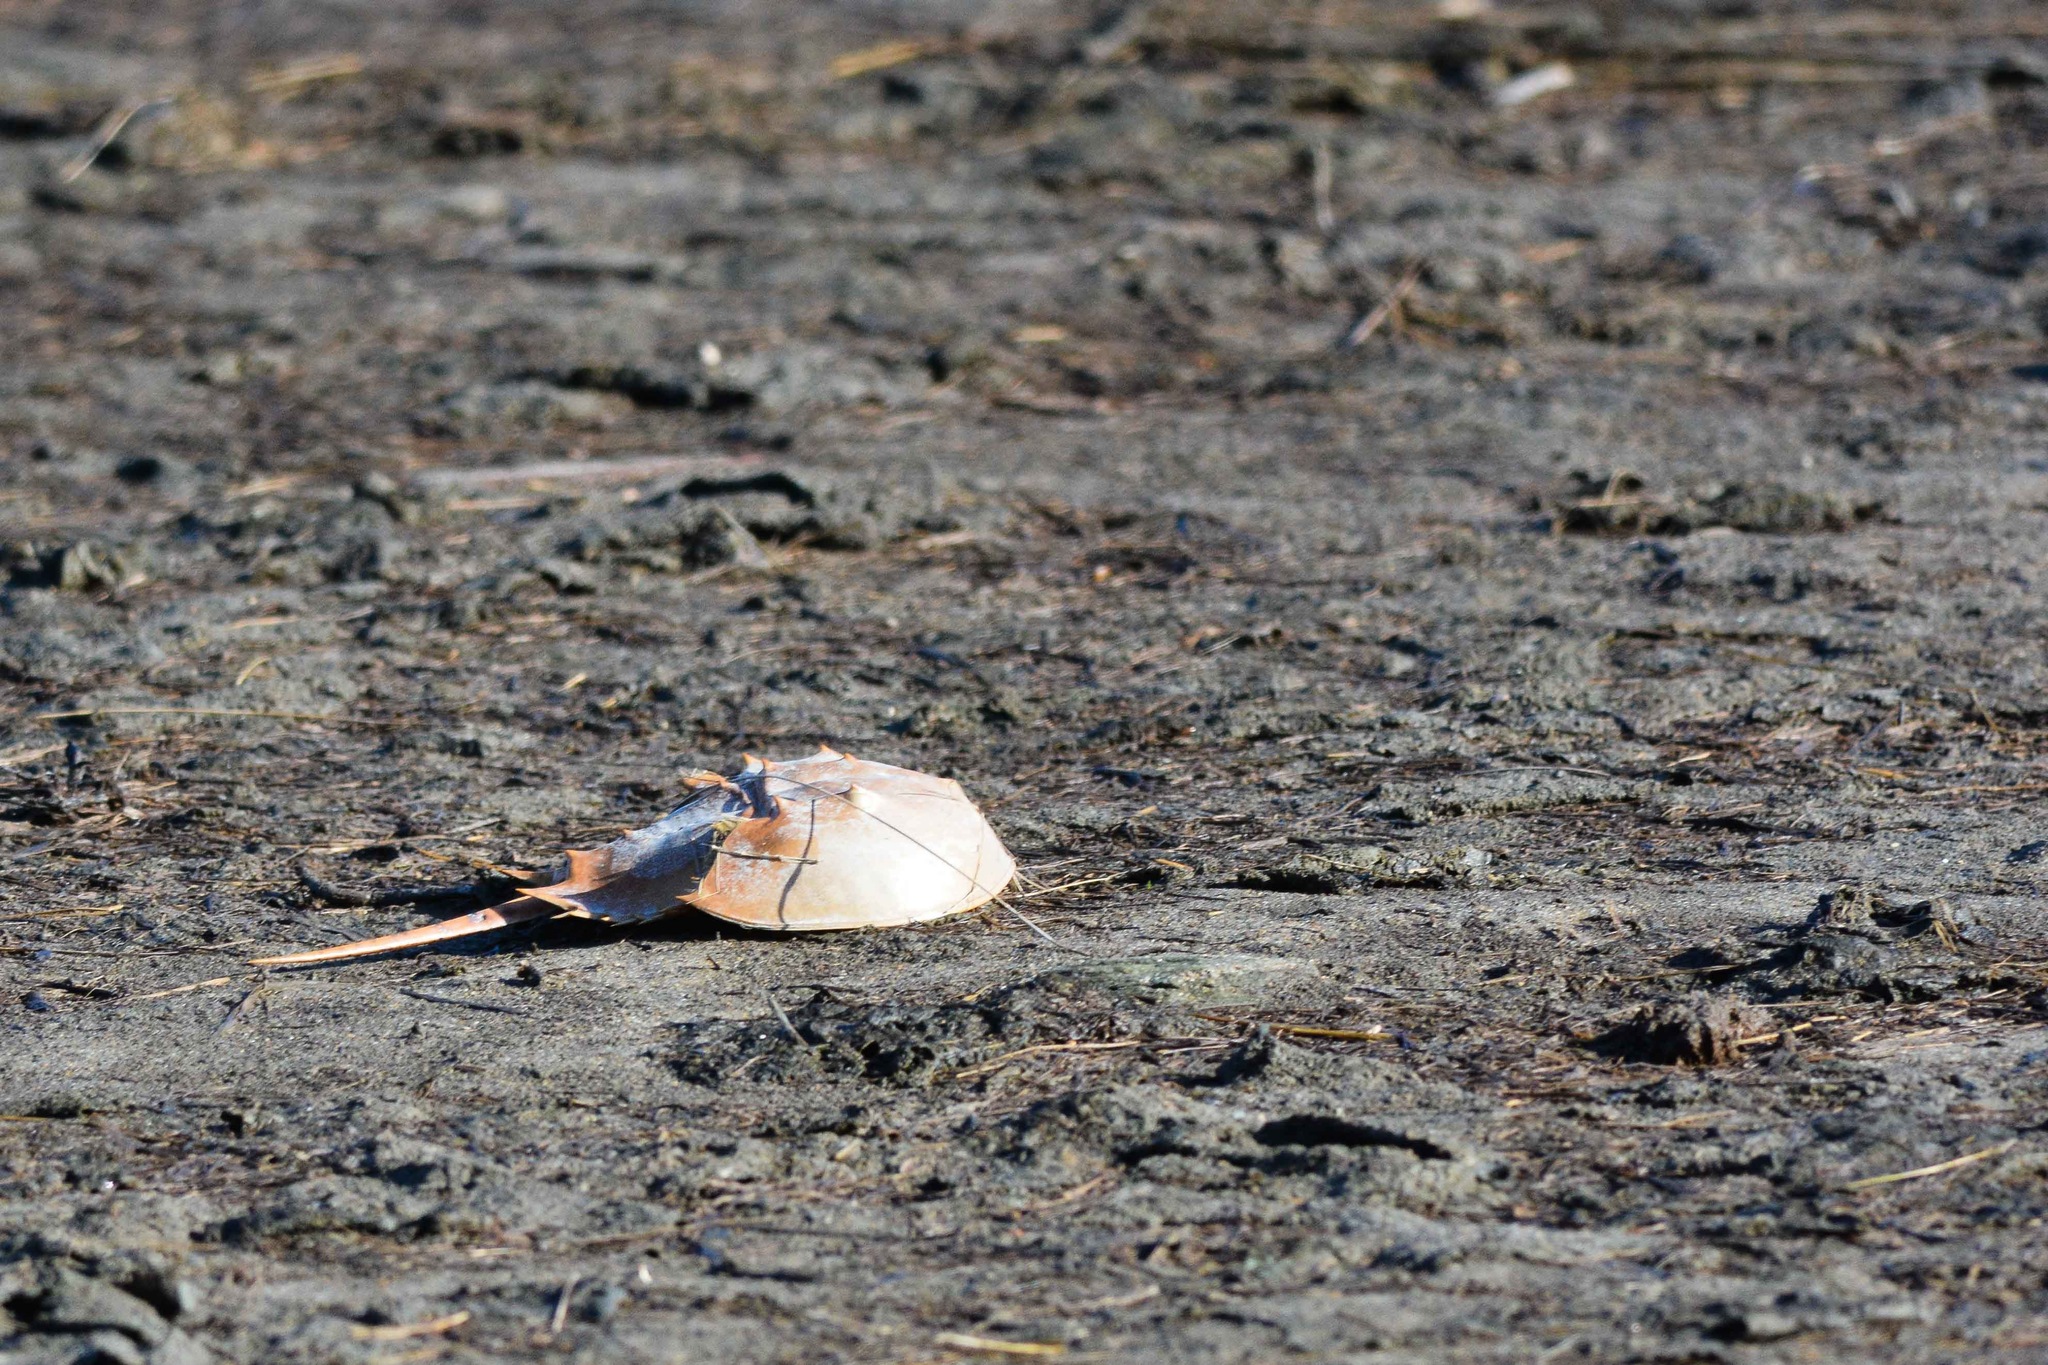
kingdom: Animalia
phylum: Arthropoda
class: Merostomata
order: Xiphosurida
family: Limulidae
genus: Limulus
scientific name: Limulus polyphemus
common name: Horseshoe crab
